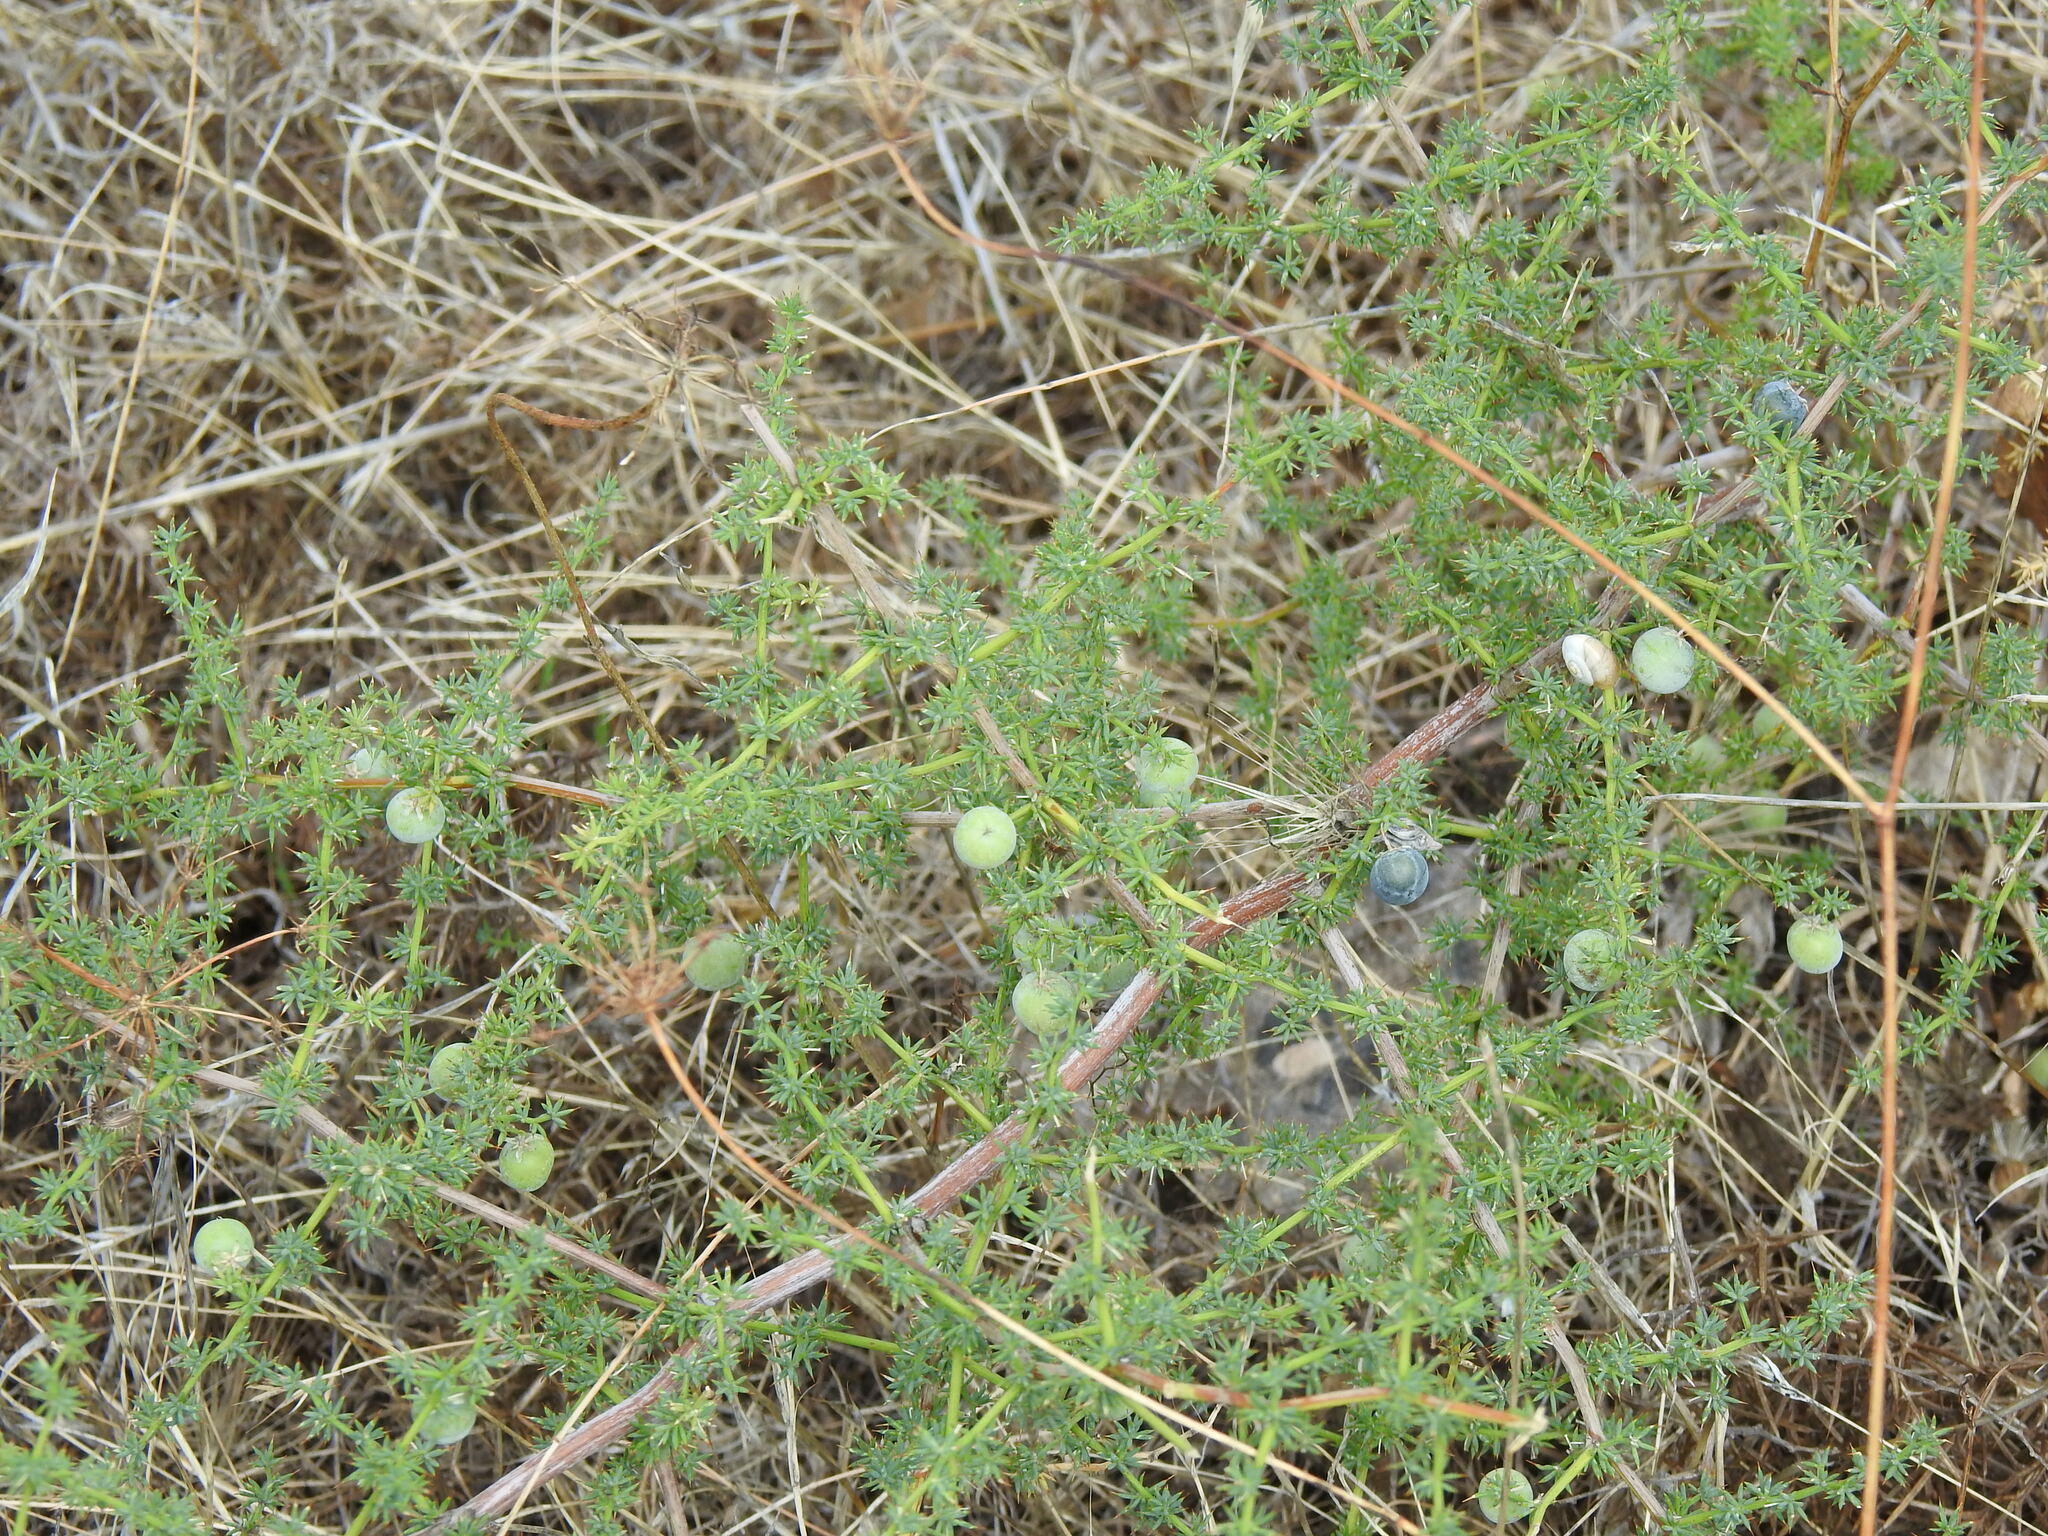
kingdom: Plantae
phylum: Tracheophyta
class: Liliopsida
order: Asparagales
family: Asparagaceae
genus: Asparagus
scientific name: Asparagus acutifolius
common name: Wild asparagus
